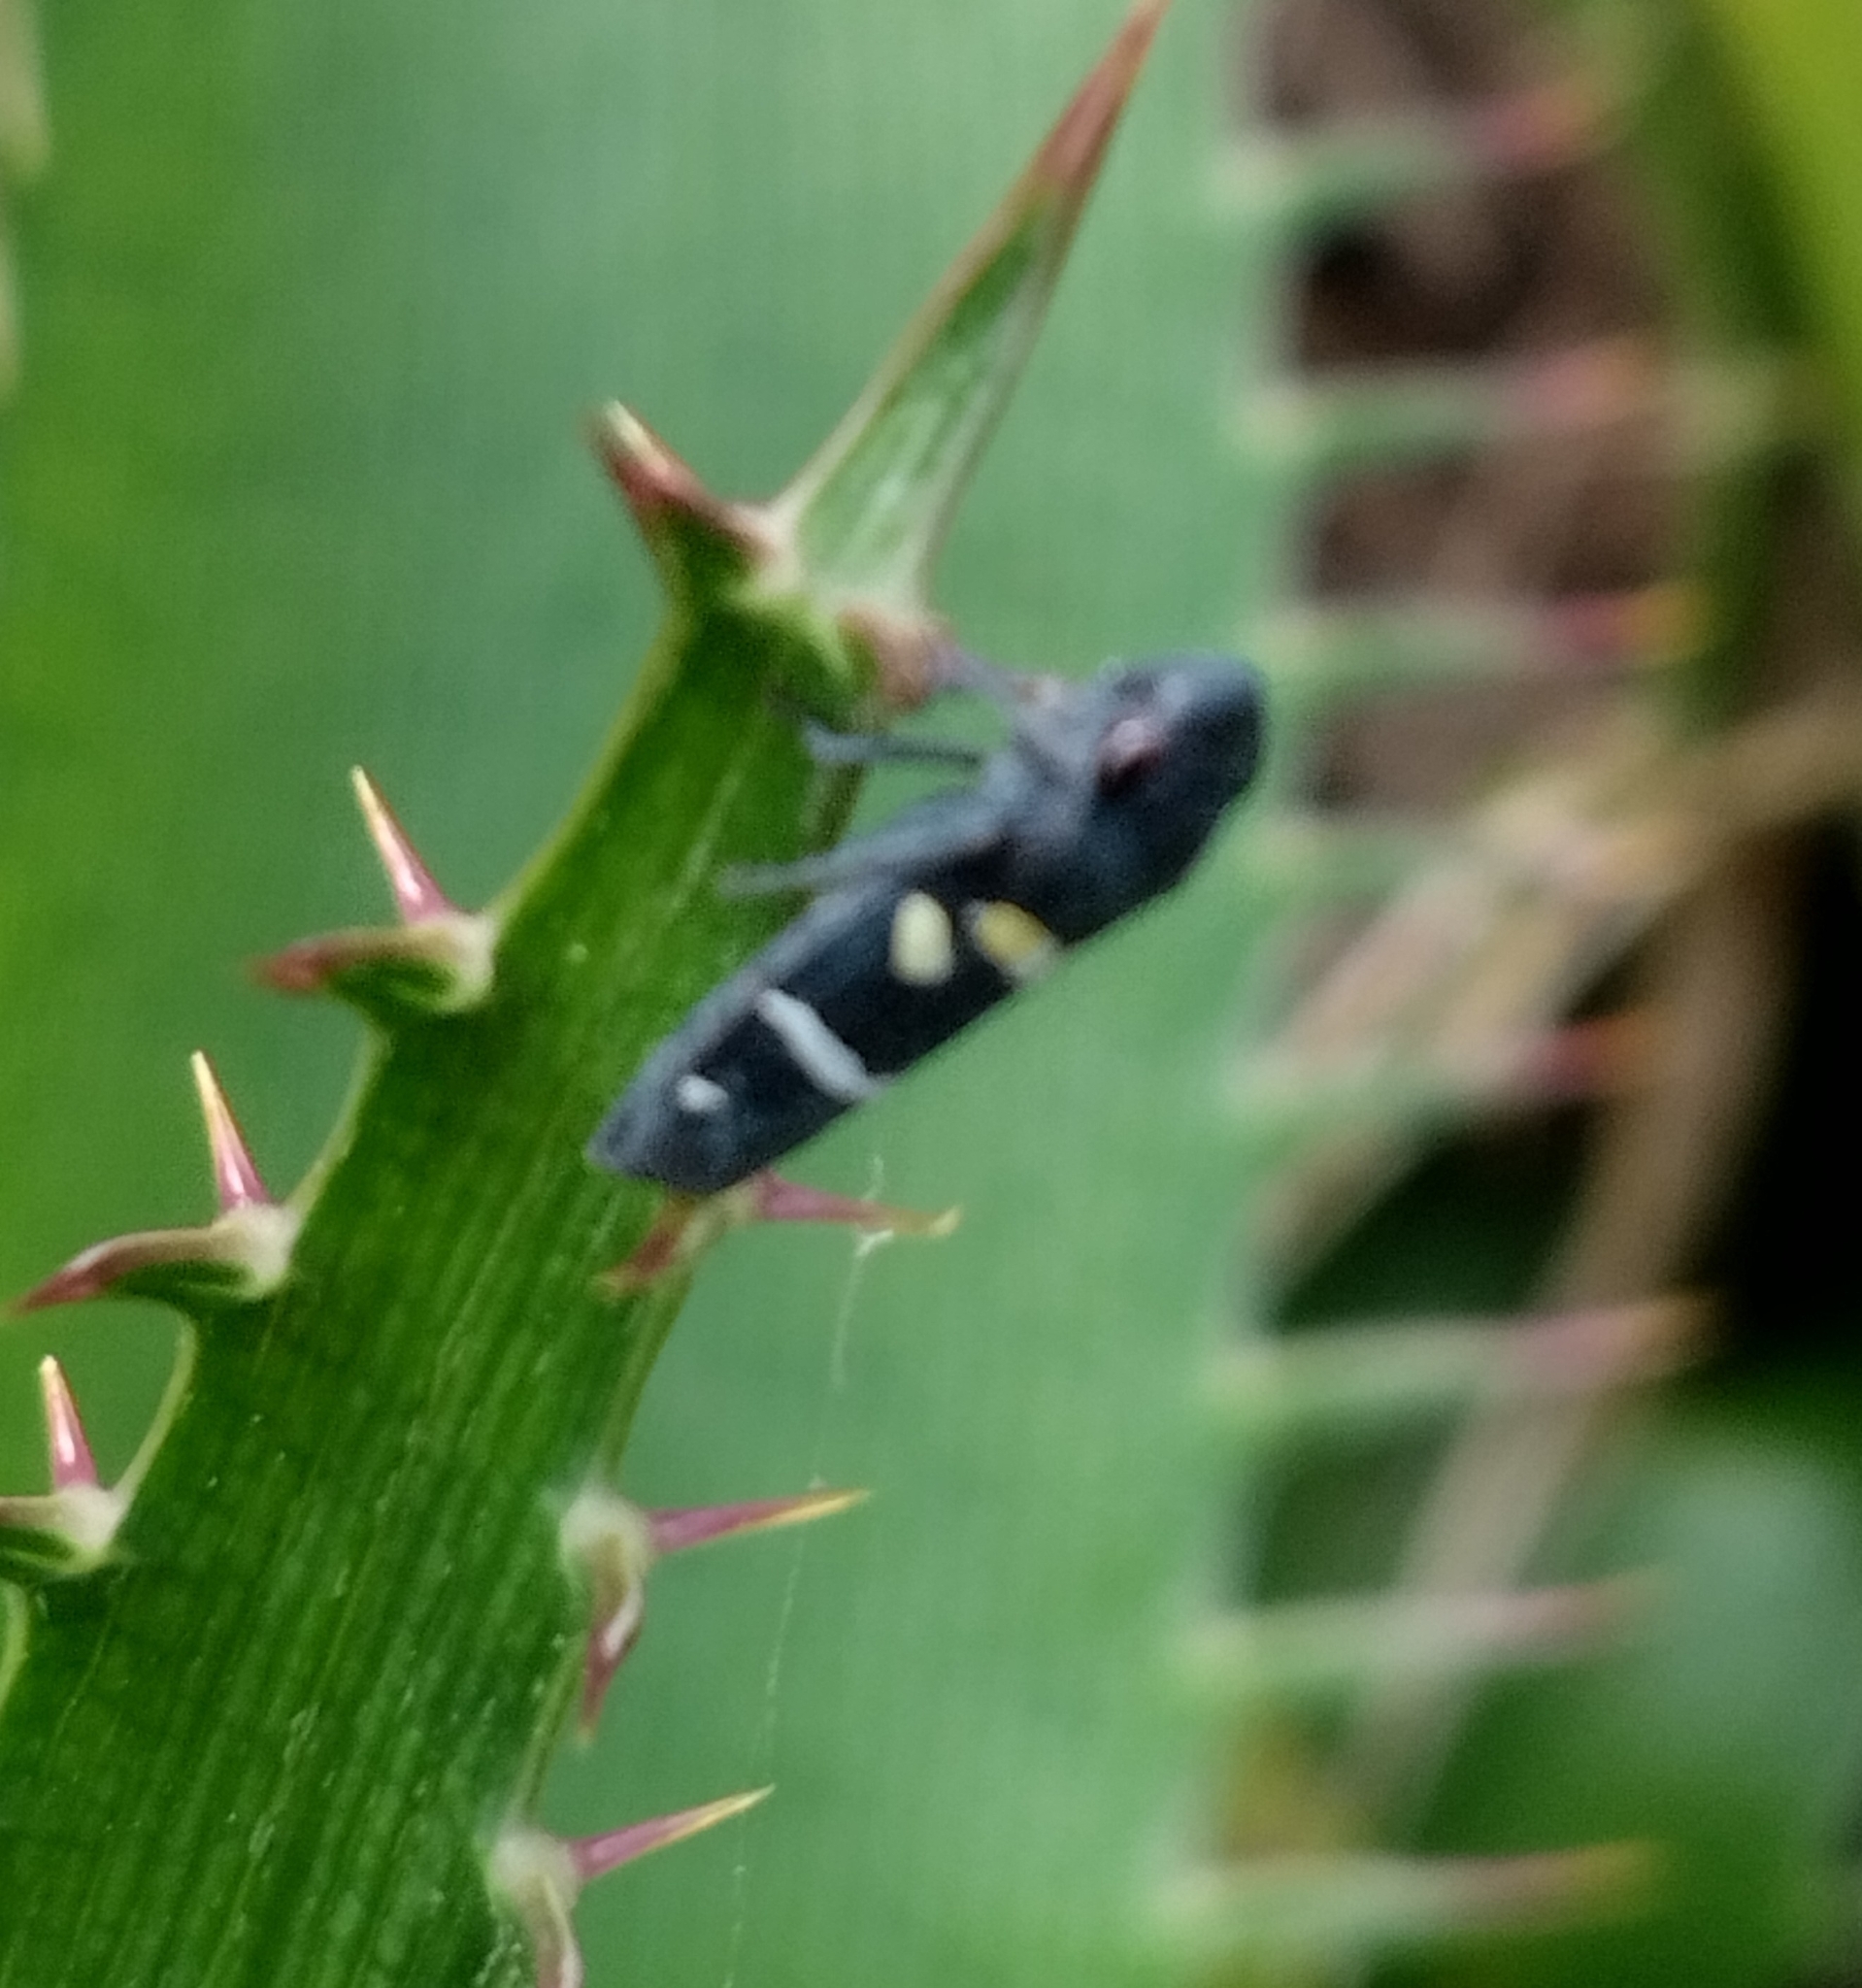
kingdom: Animalia
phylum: Arthropoda
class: Insecta
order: Hemiptera
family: Cicadellidae
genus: Balacha
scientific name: Balacha similis
